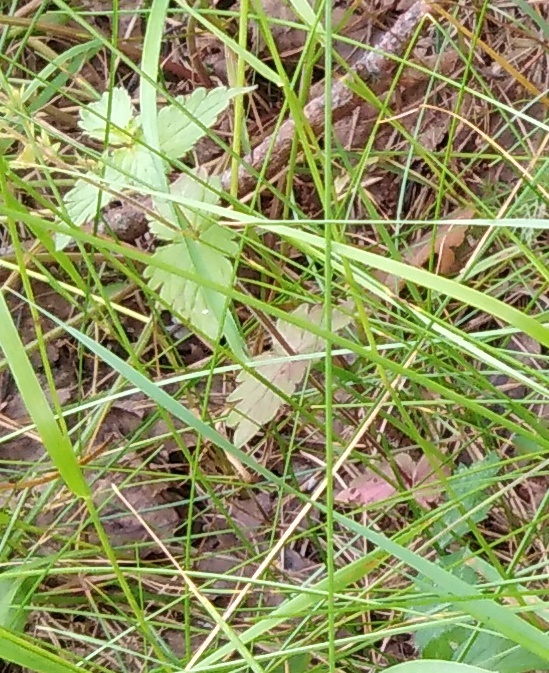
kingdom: Plantae
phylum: Tracheophyta
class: Magnoliopsida
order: Lamiales
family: Plantaginaceae
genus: Veronica
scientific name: Veronica chamaedrys
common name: Germander speedwell
